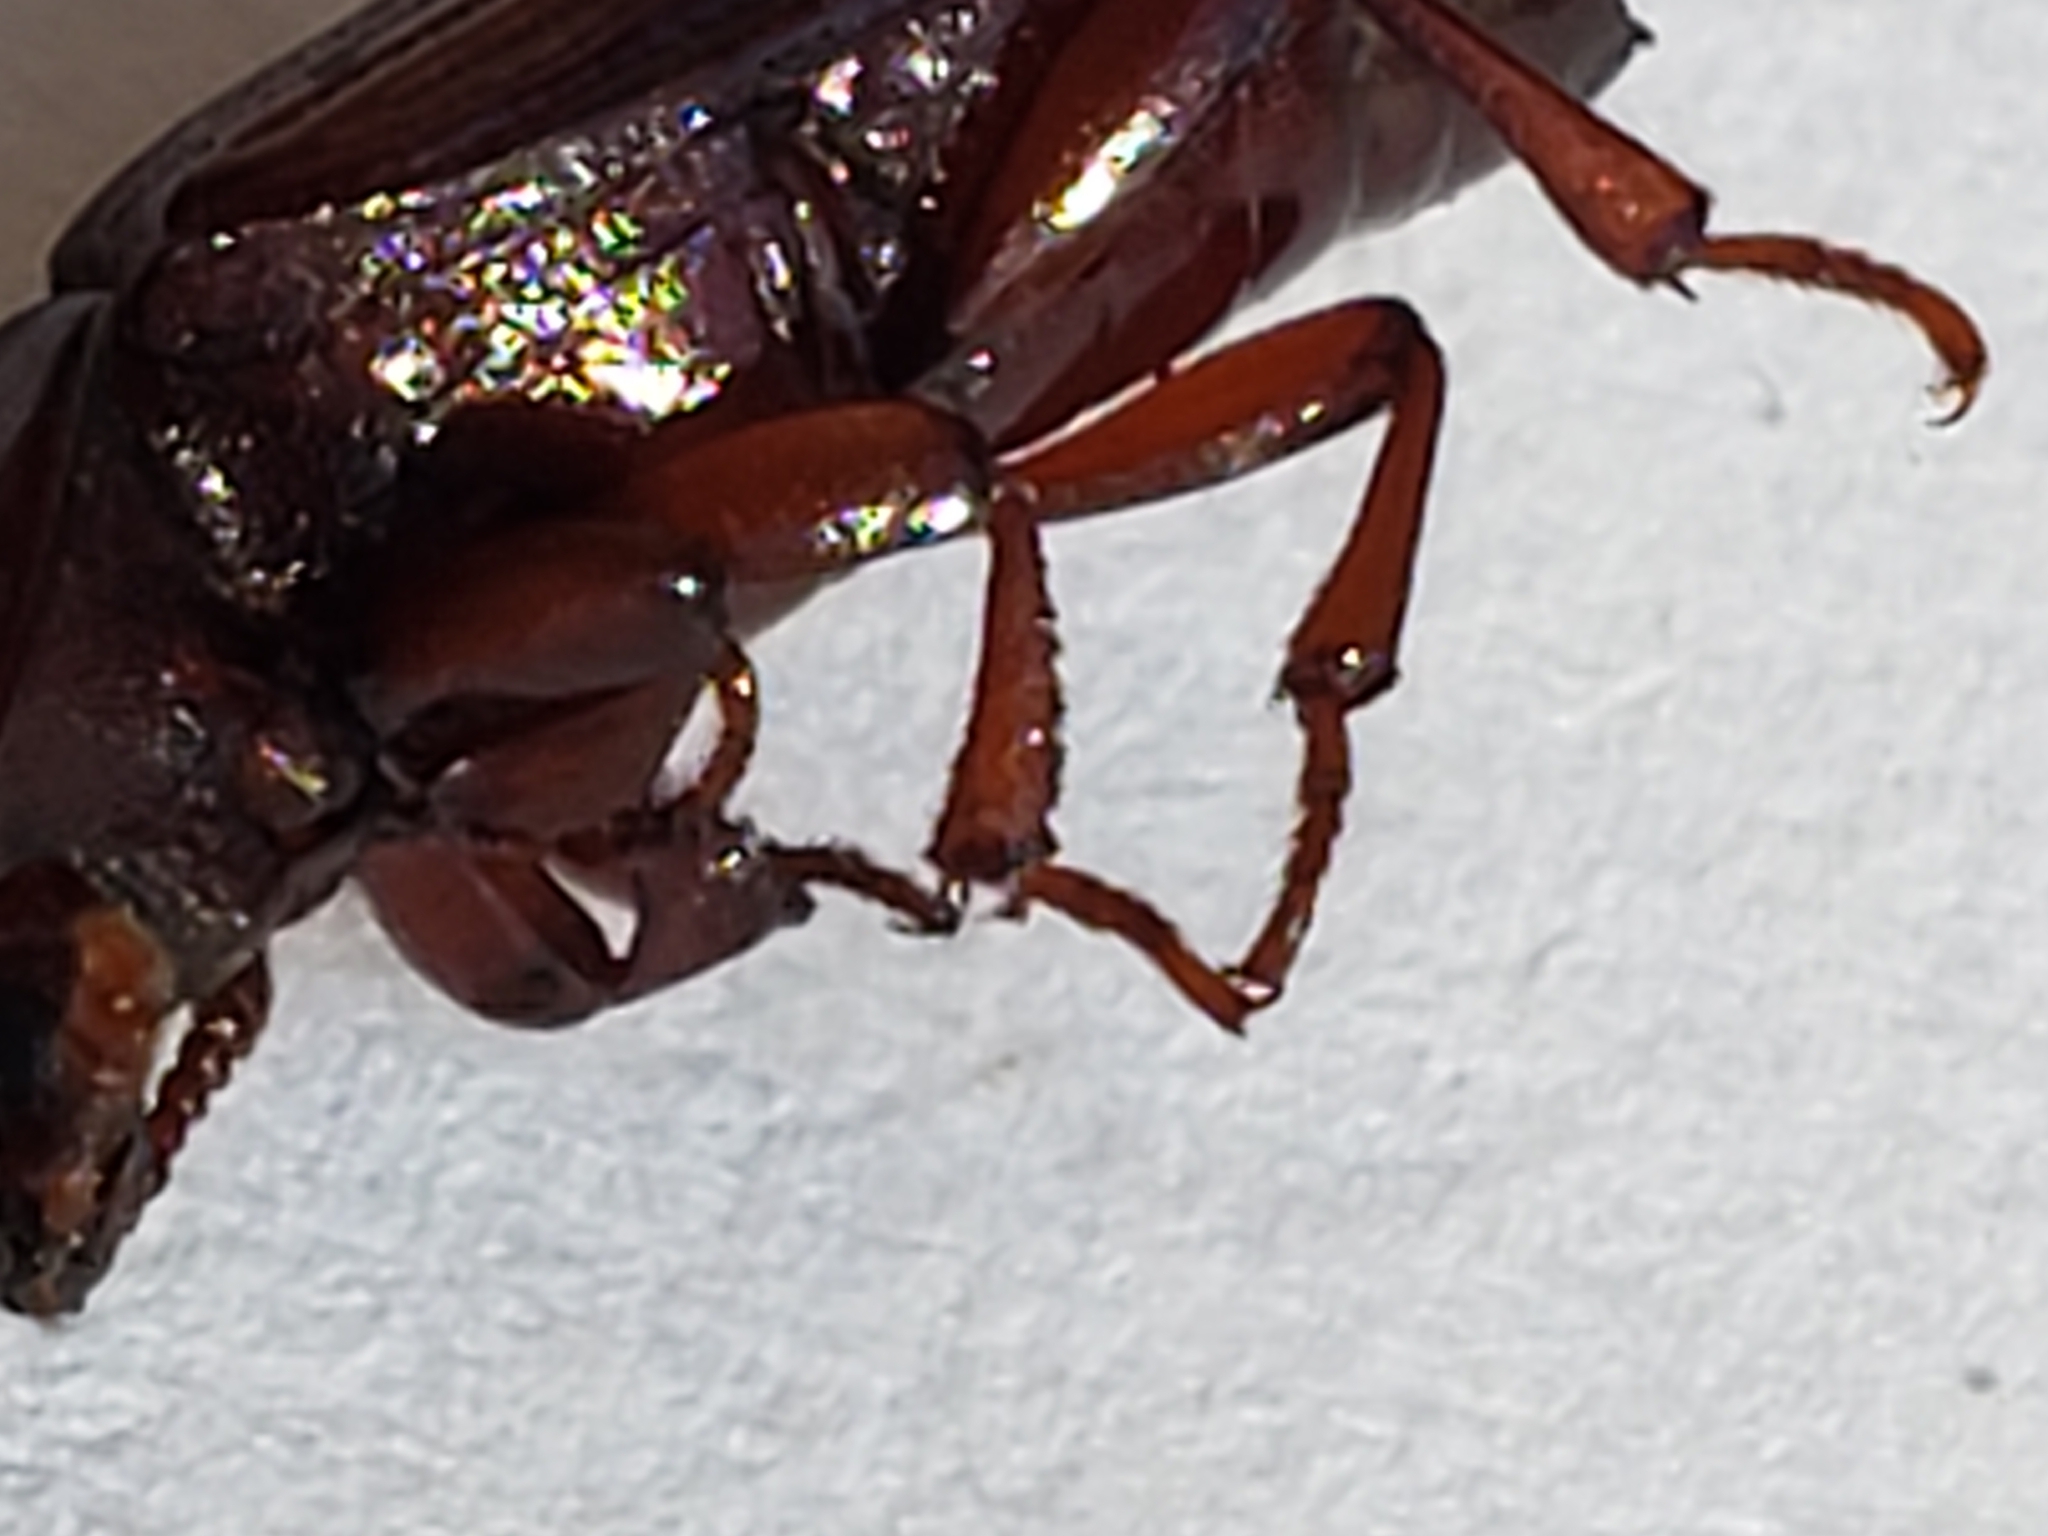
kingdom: Animalia
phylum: Arthropoda
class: Insecta
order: Coleoptera
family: Tenebrionidae
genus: Uloma
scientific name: Uloma imberbis
